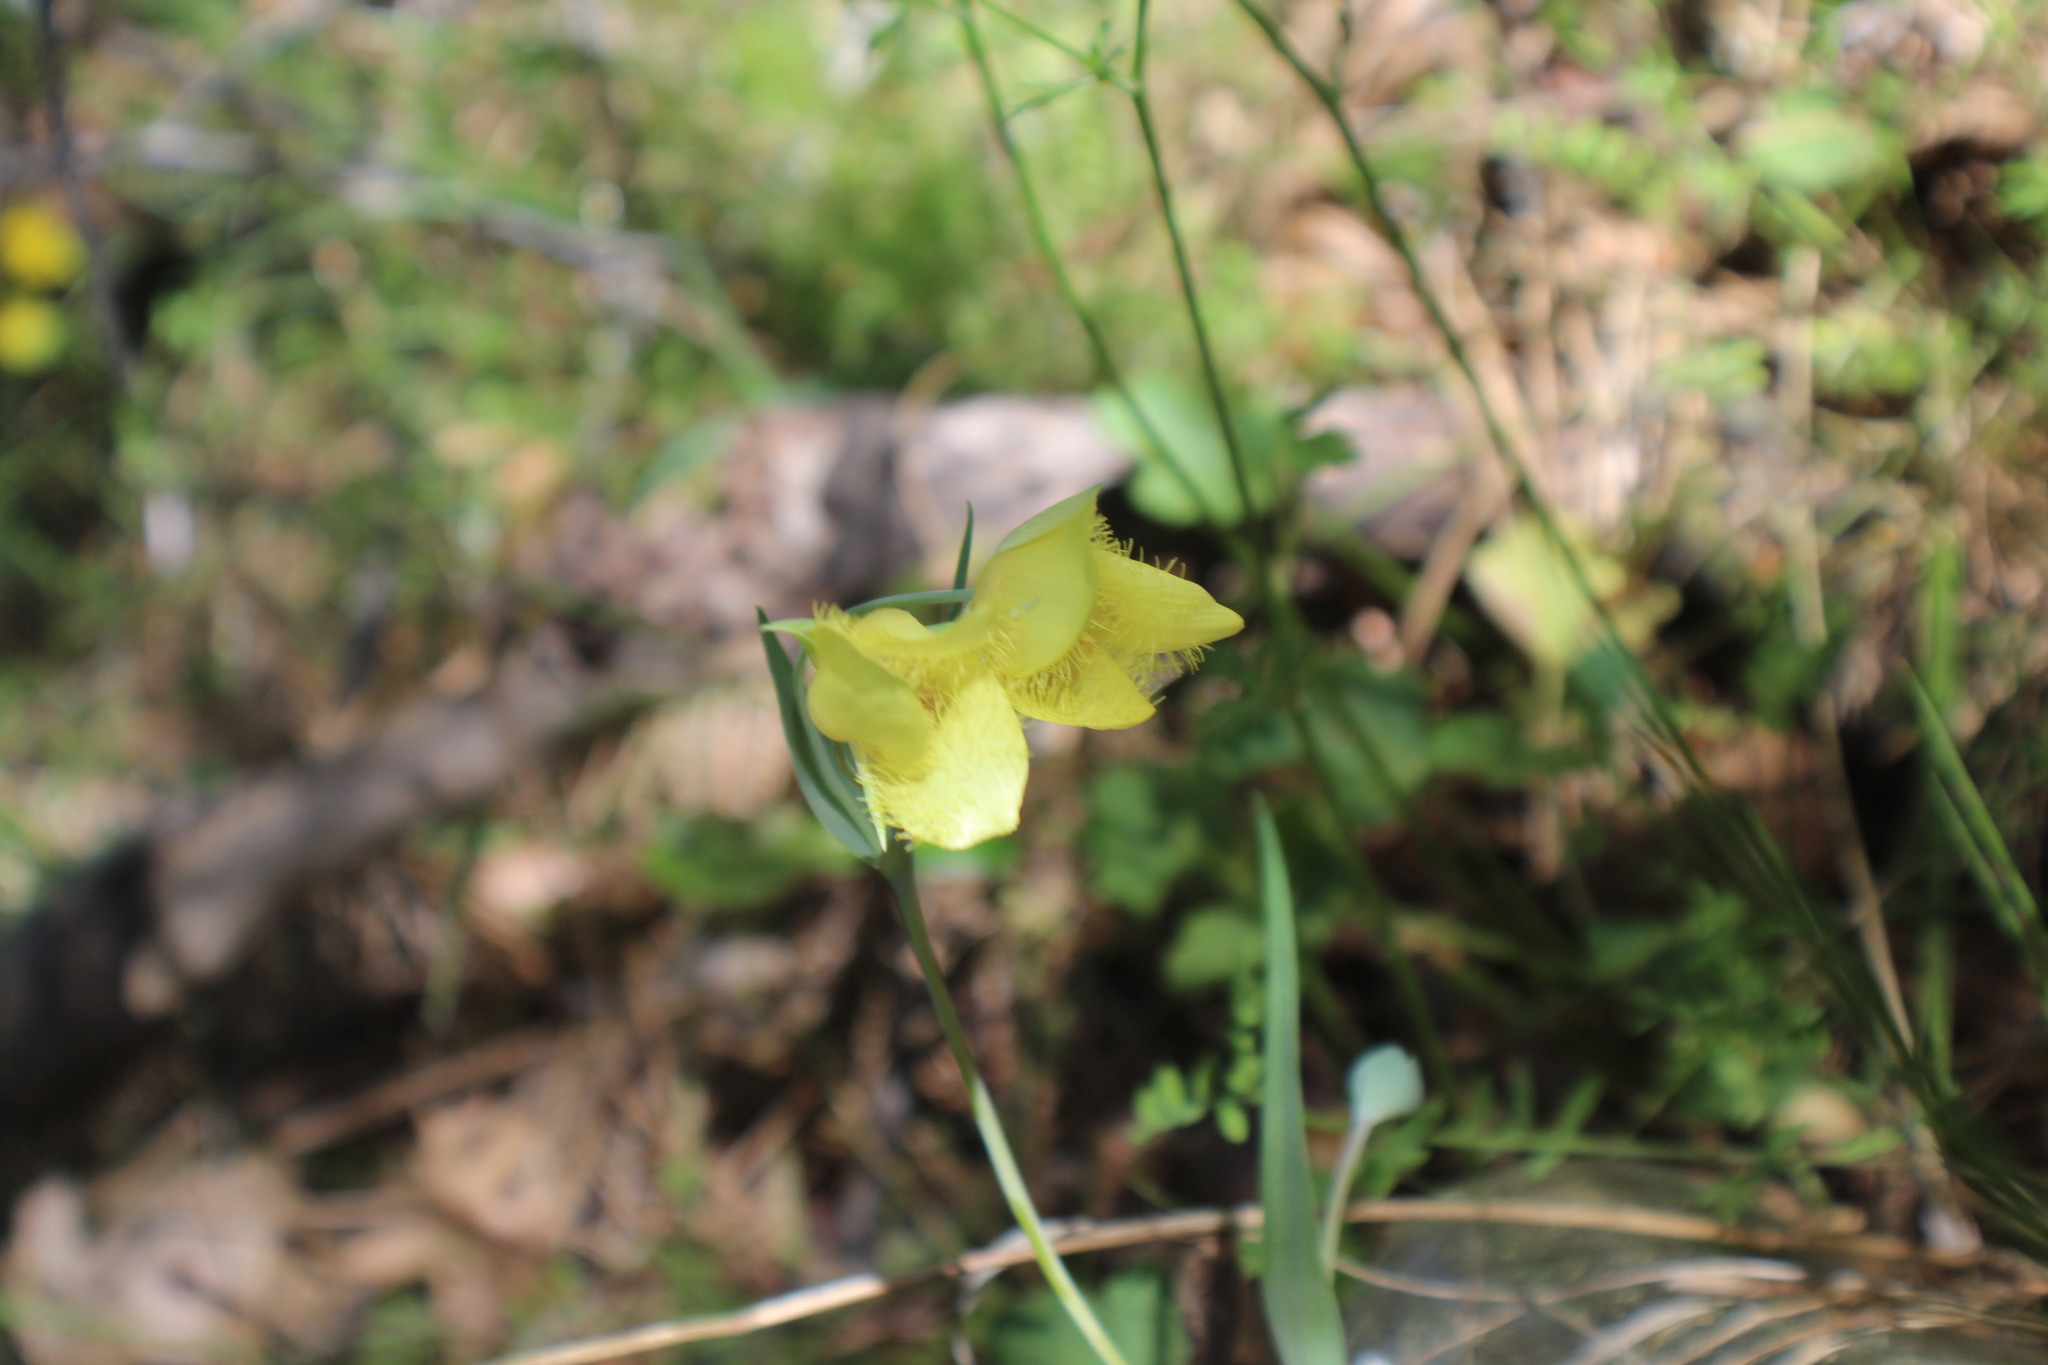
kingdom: Plantae
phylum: Tracheophyta
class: Liliopsida
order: Liliales
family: Liliaceae
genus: Calochortus
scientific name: Calochortus monophyllus
